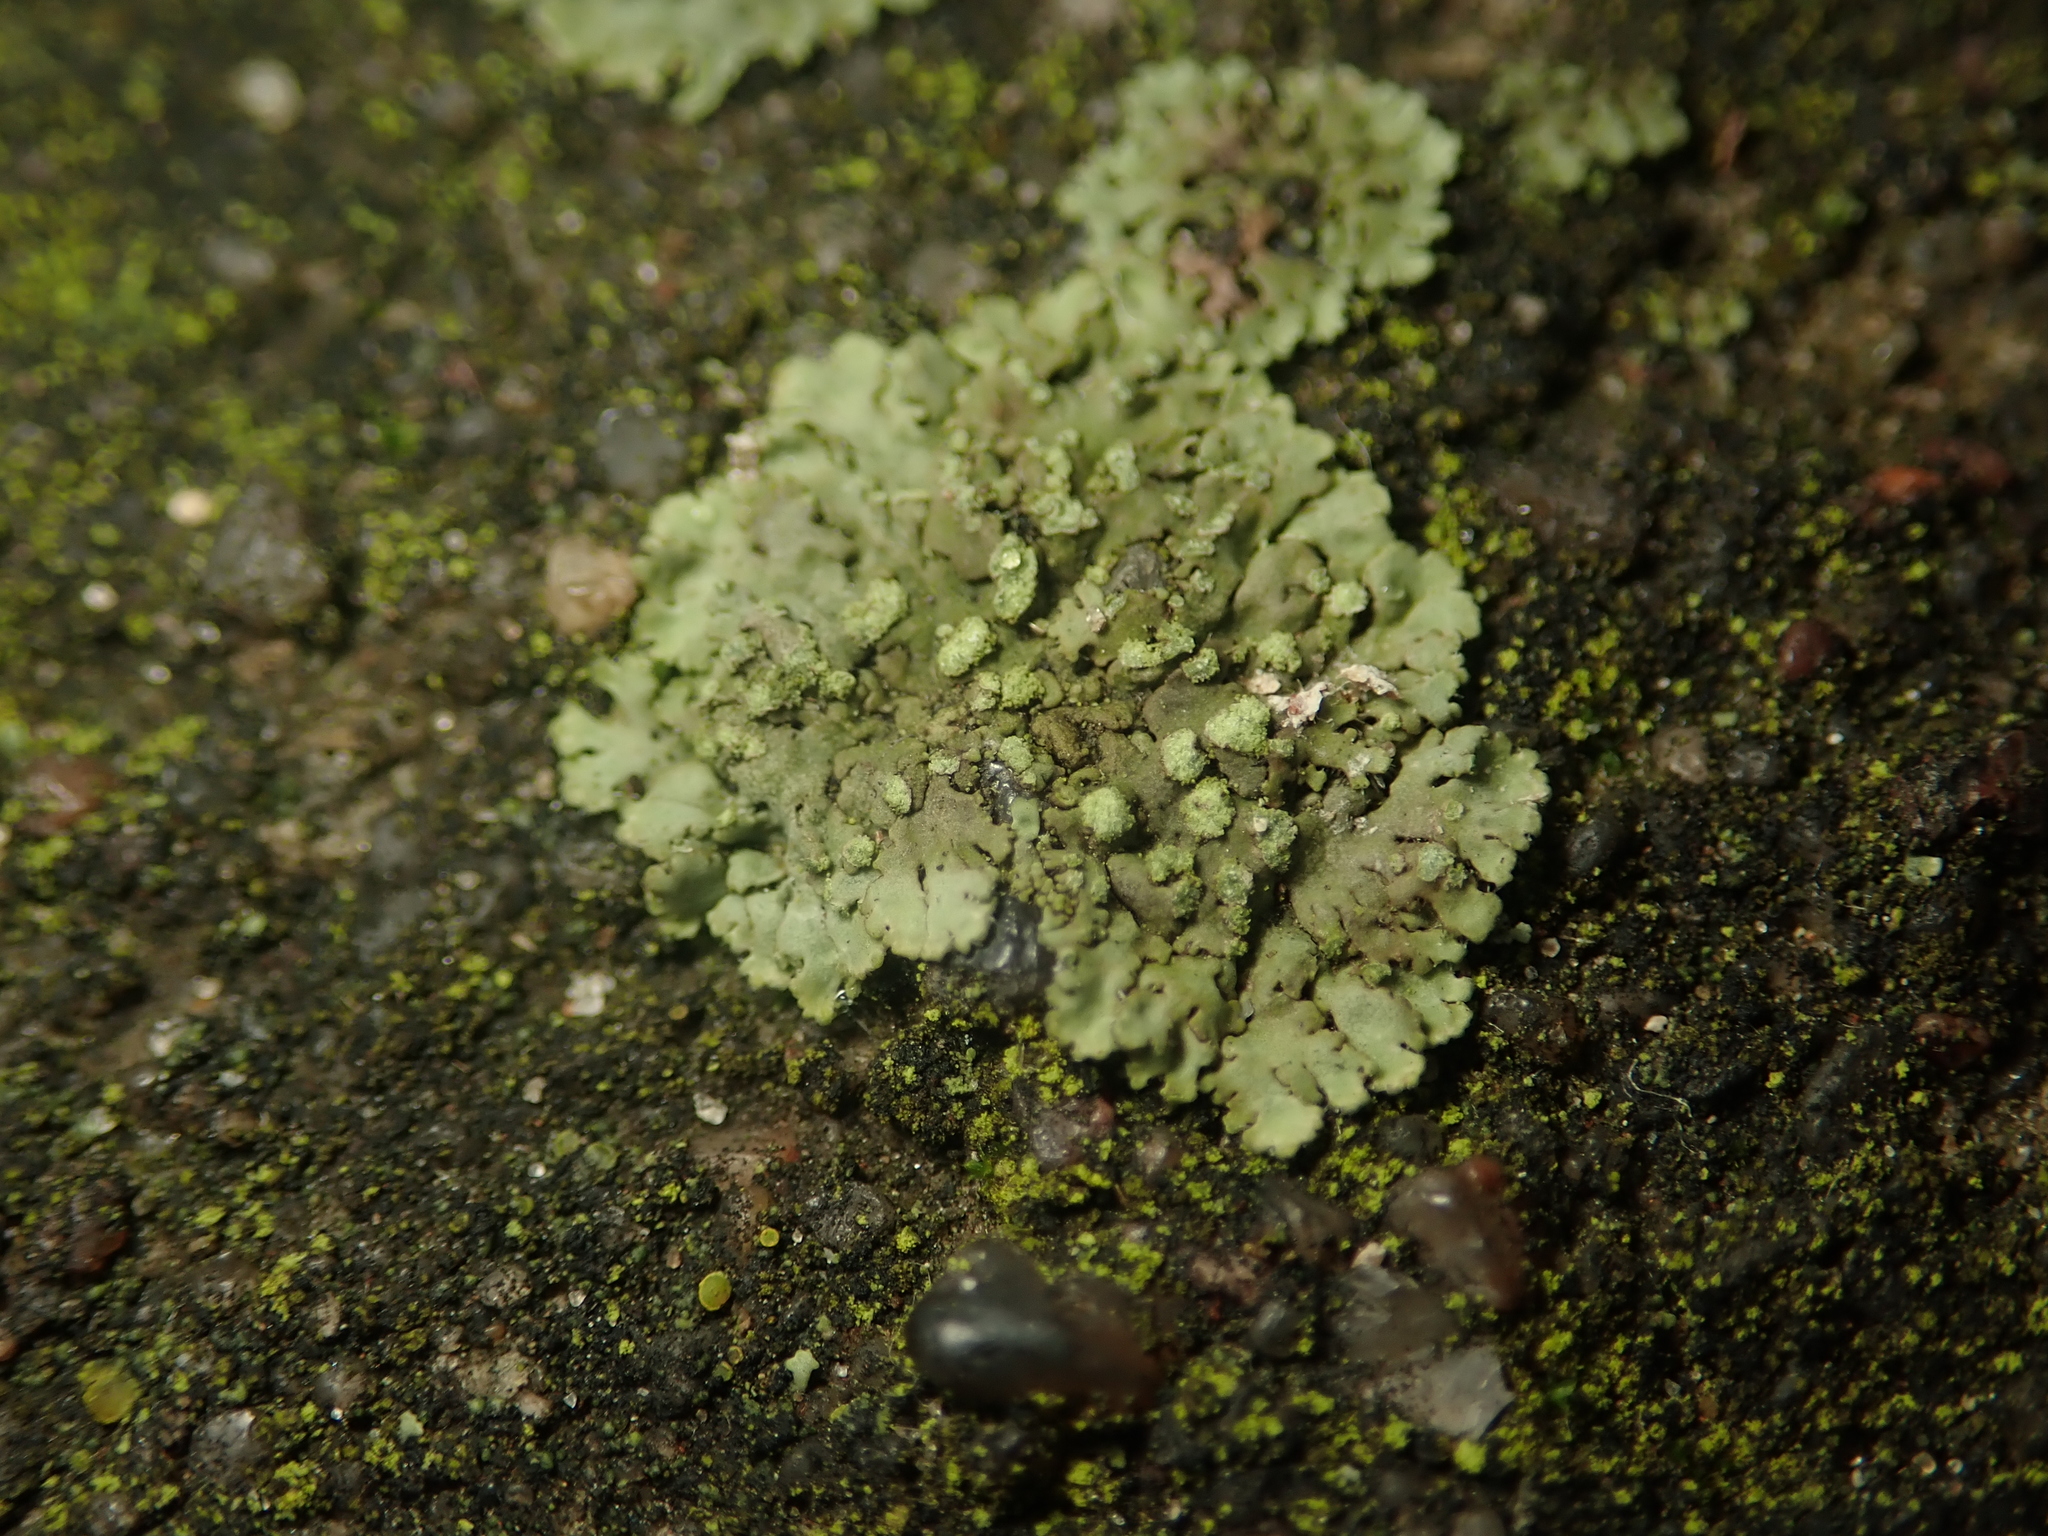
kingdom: Fungi
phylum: Ascomycota
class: Lecanoromycetes
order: Caliciales
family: Physciaceae
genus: Phaeophyscia
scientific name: Phaeophyscia orbicularis
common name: Mealy shadow lichen
